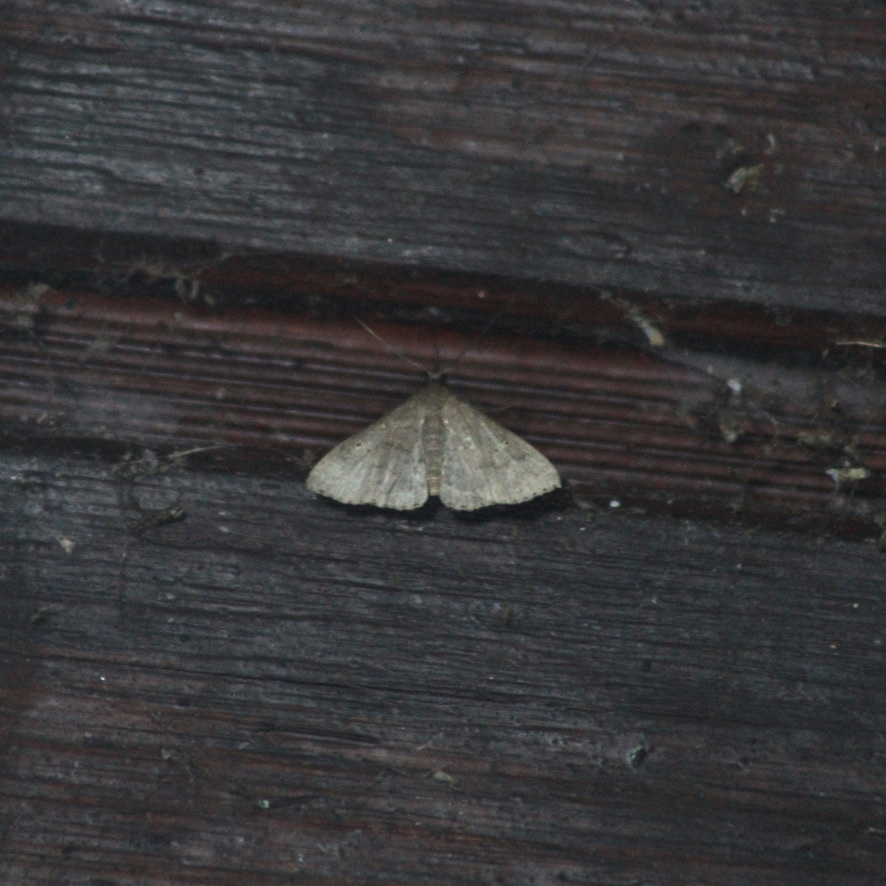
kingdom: Animalia
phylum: Arthropoda
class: Insecta
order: Lepidoptera
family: Erebidae
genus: Physula
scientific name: Physula migralis
